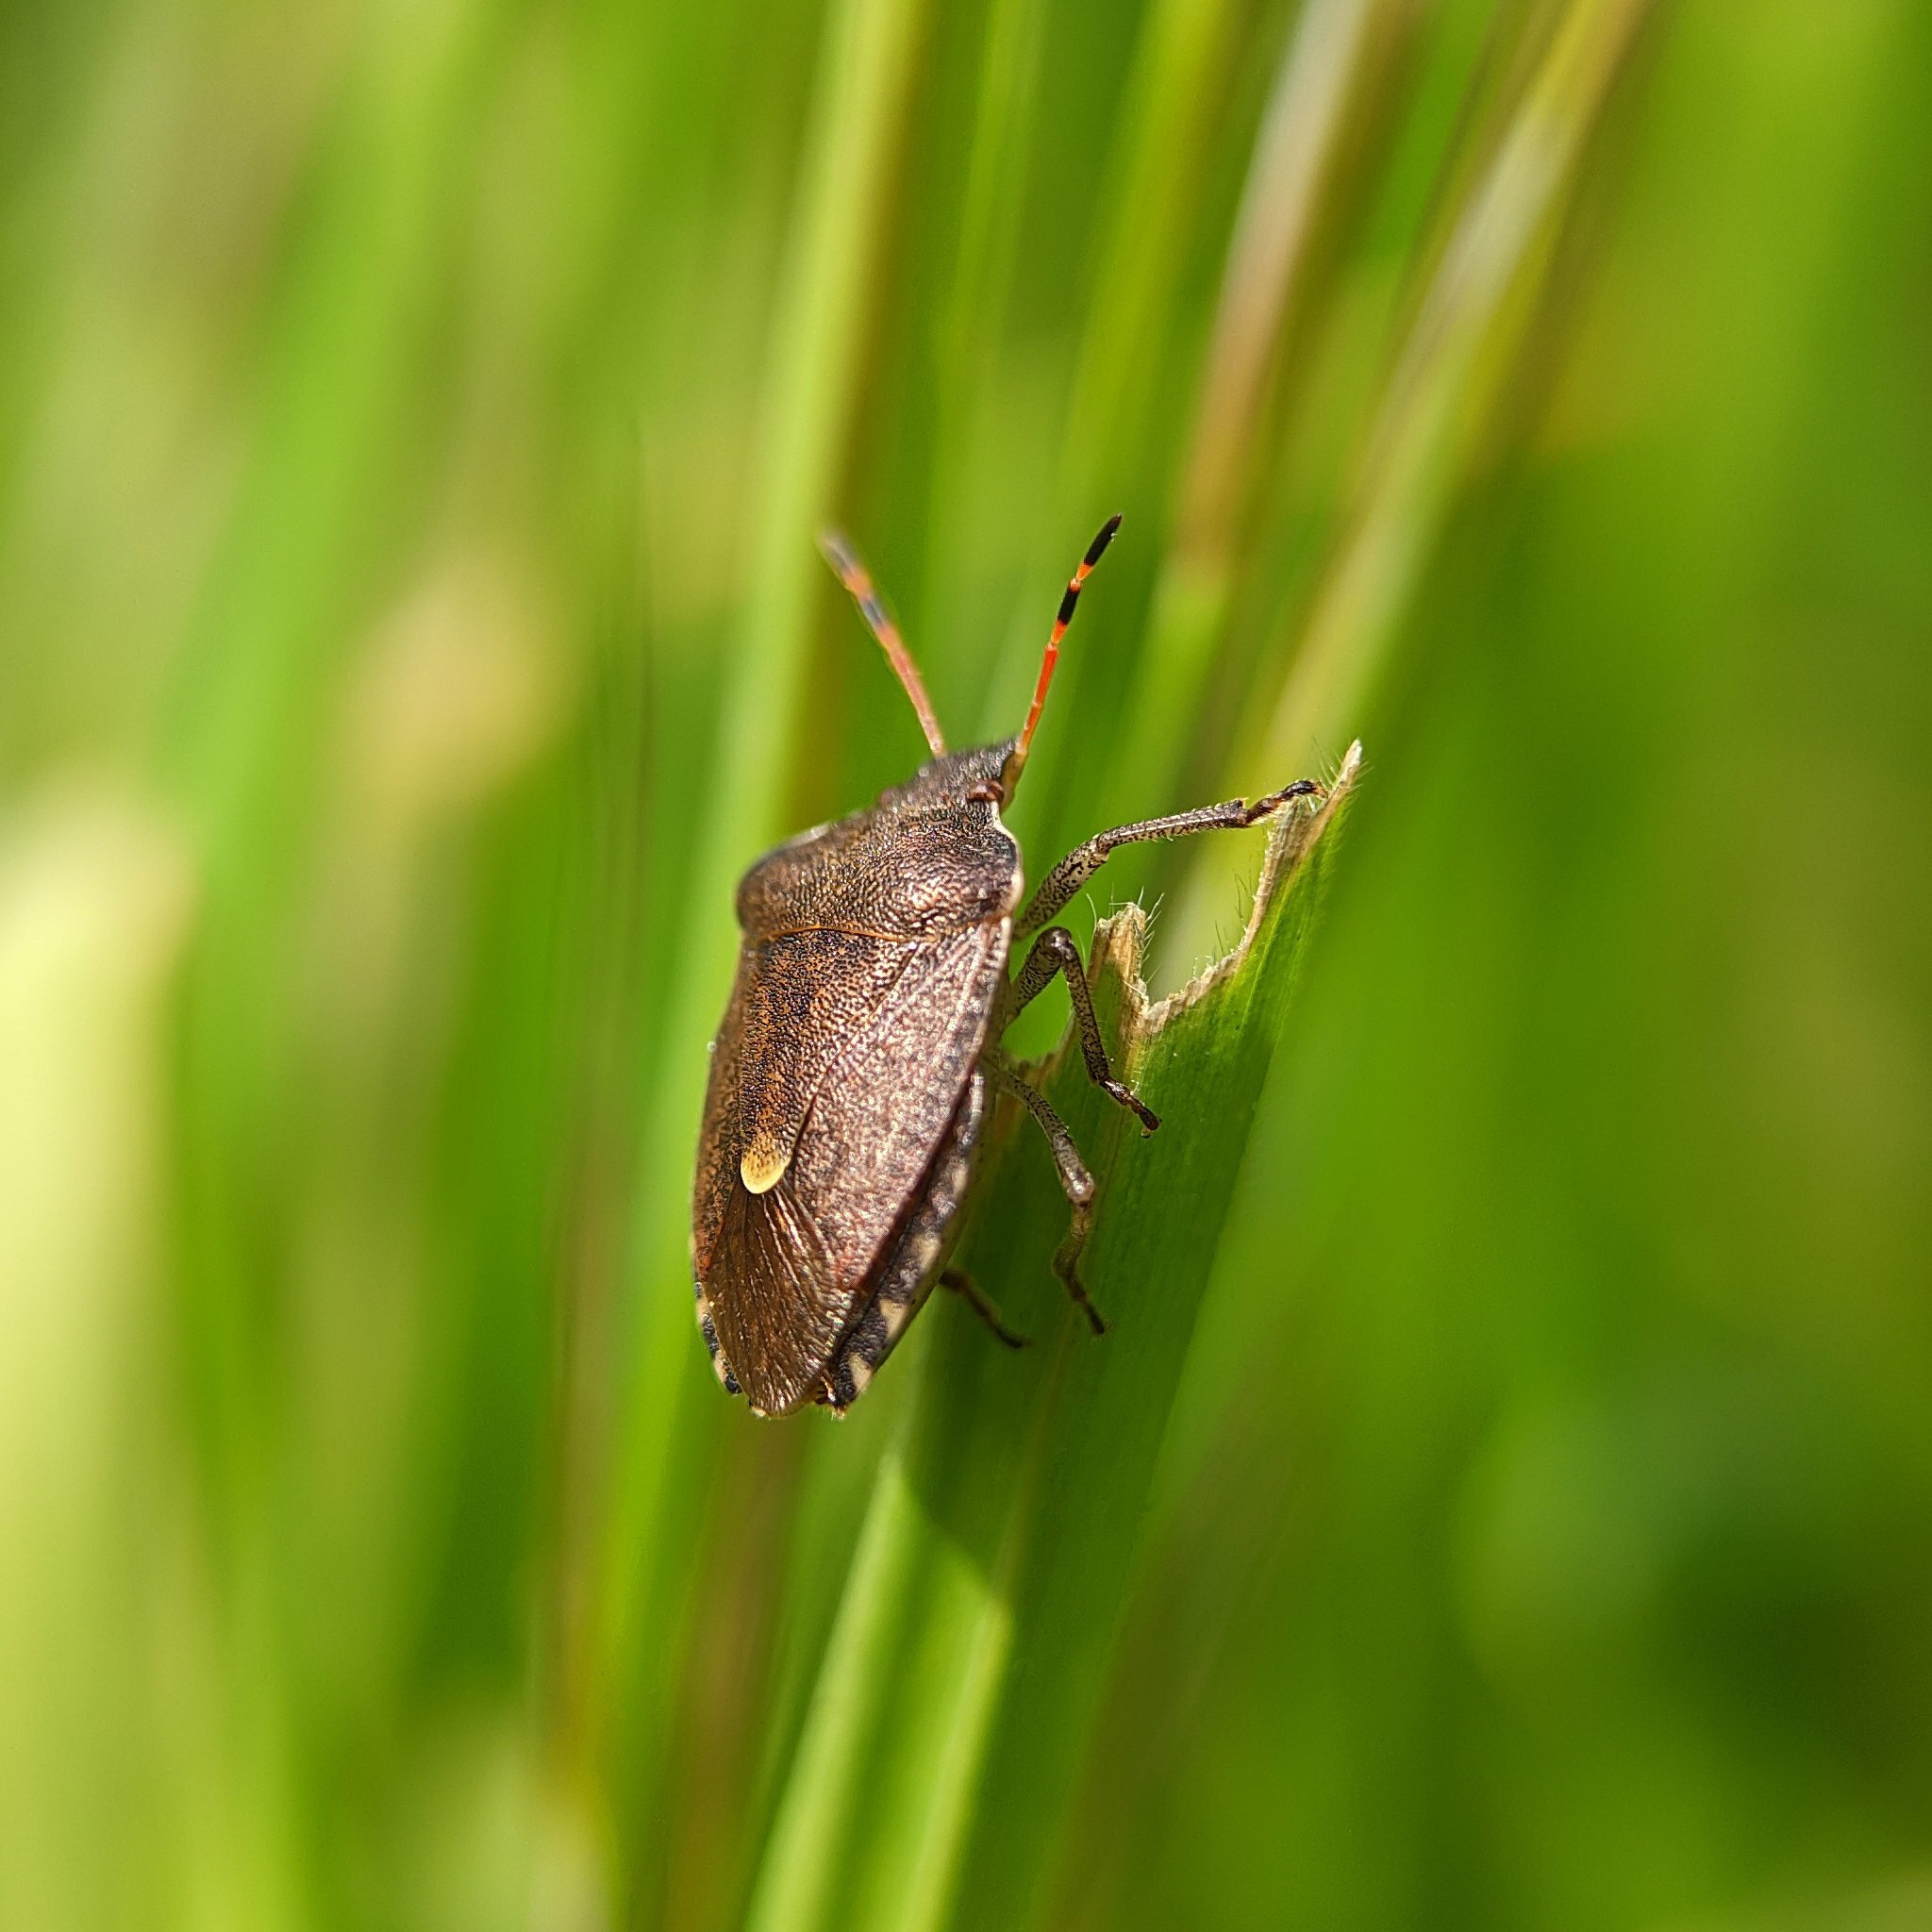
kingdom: Animalia
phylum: Arthropoda
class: Insecta
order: Hemiptera
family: Pentatomidae
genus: Holcostethus
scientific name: Holcostethus strictus
